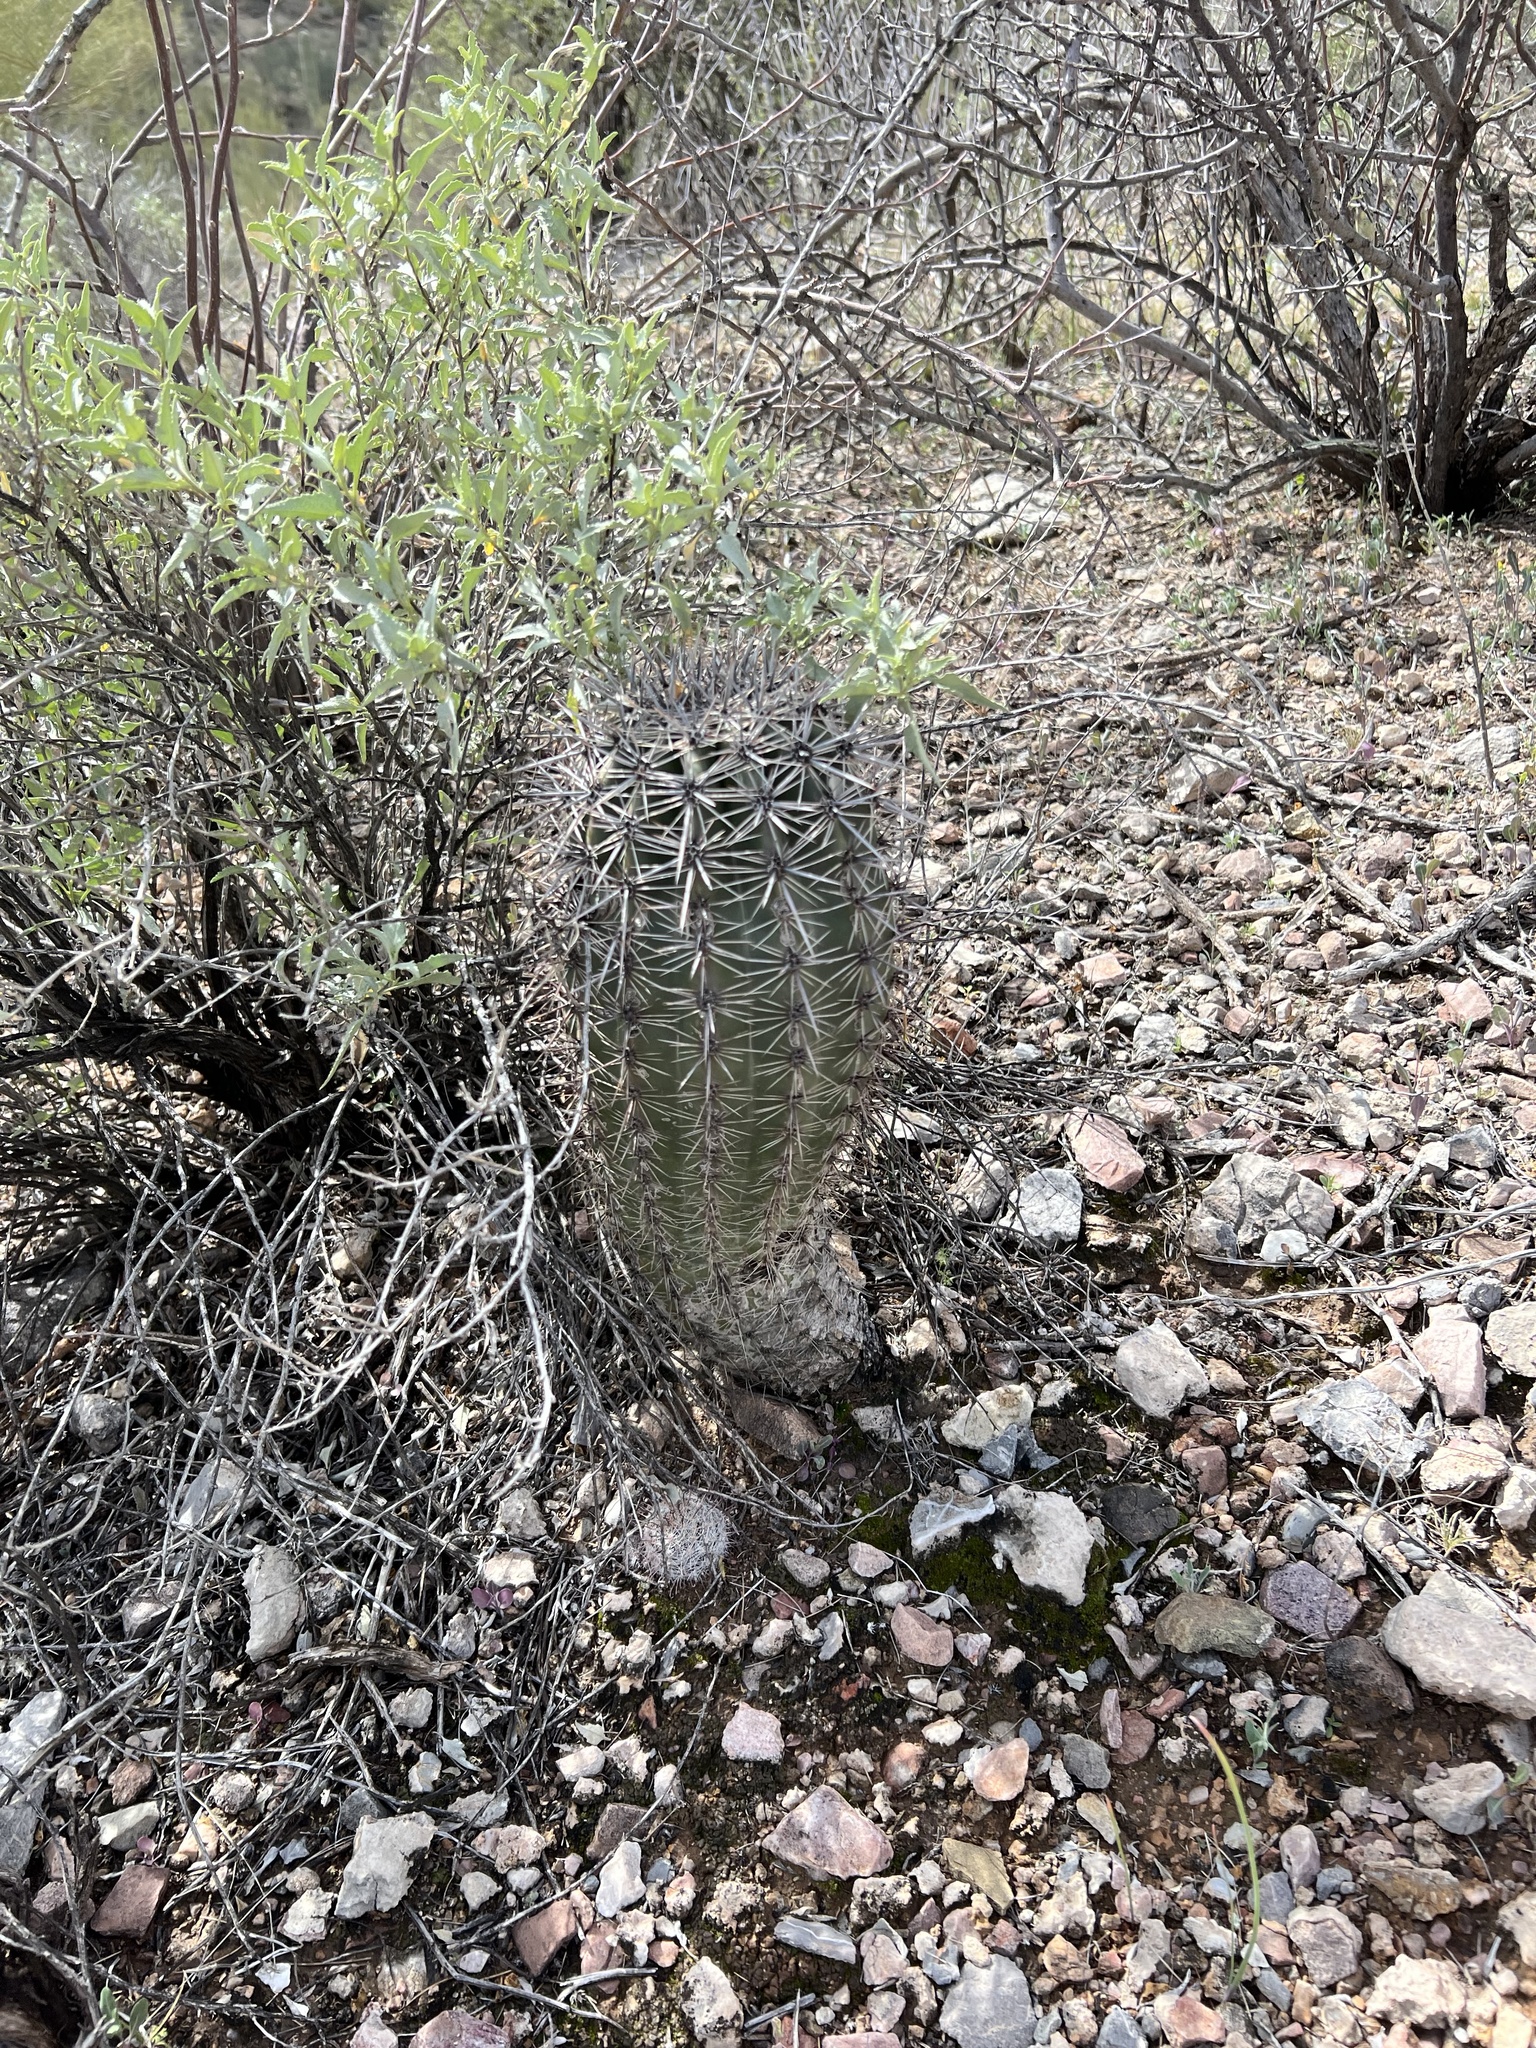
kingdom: Plantae
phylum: Tracheophyta
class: Magnoliopsida
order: Caryophyllales
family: Cactaceae
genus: Carnegiea
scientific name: Carnegiea gigantea
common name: Saguaro
